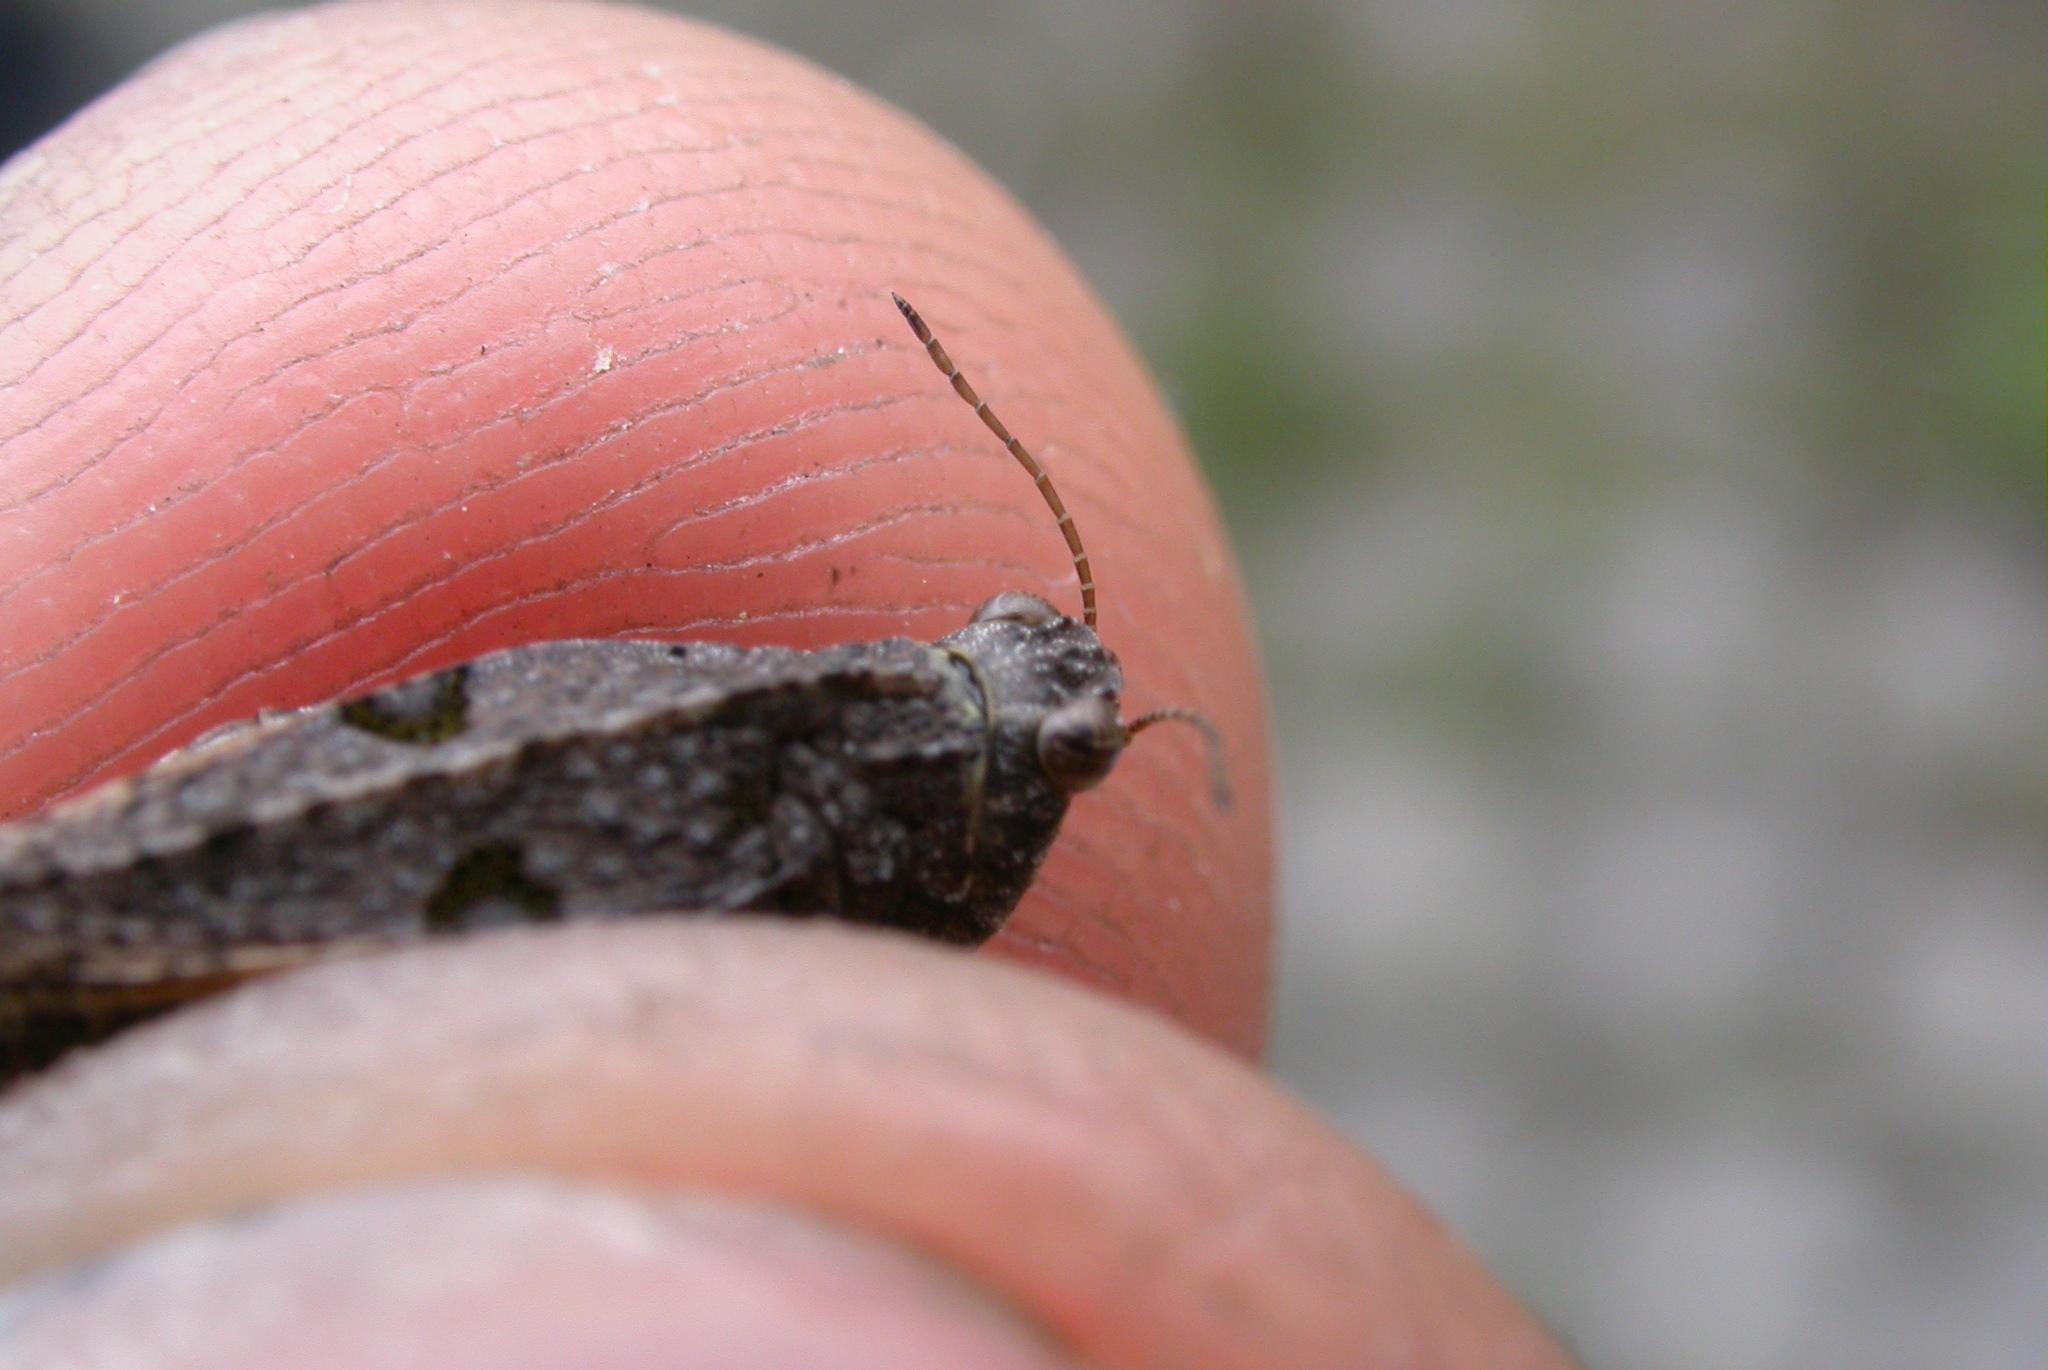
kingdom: Animalia
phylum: Arthropoda
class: Insecta
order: Orthoptera
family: Tetrigidae
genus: Tetrix
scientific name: Tetrix tenuicornis
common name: Long-horned groundhopper
